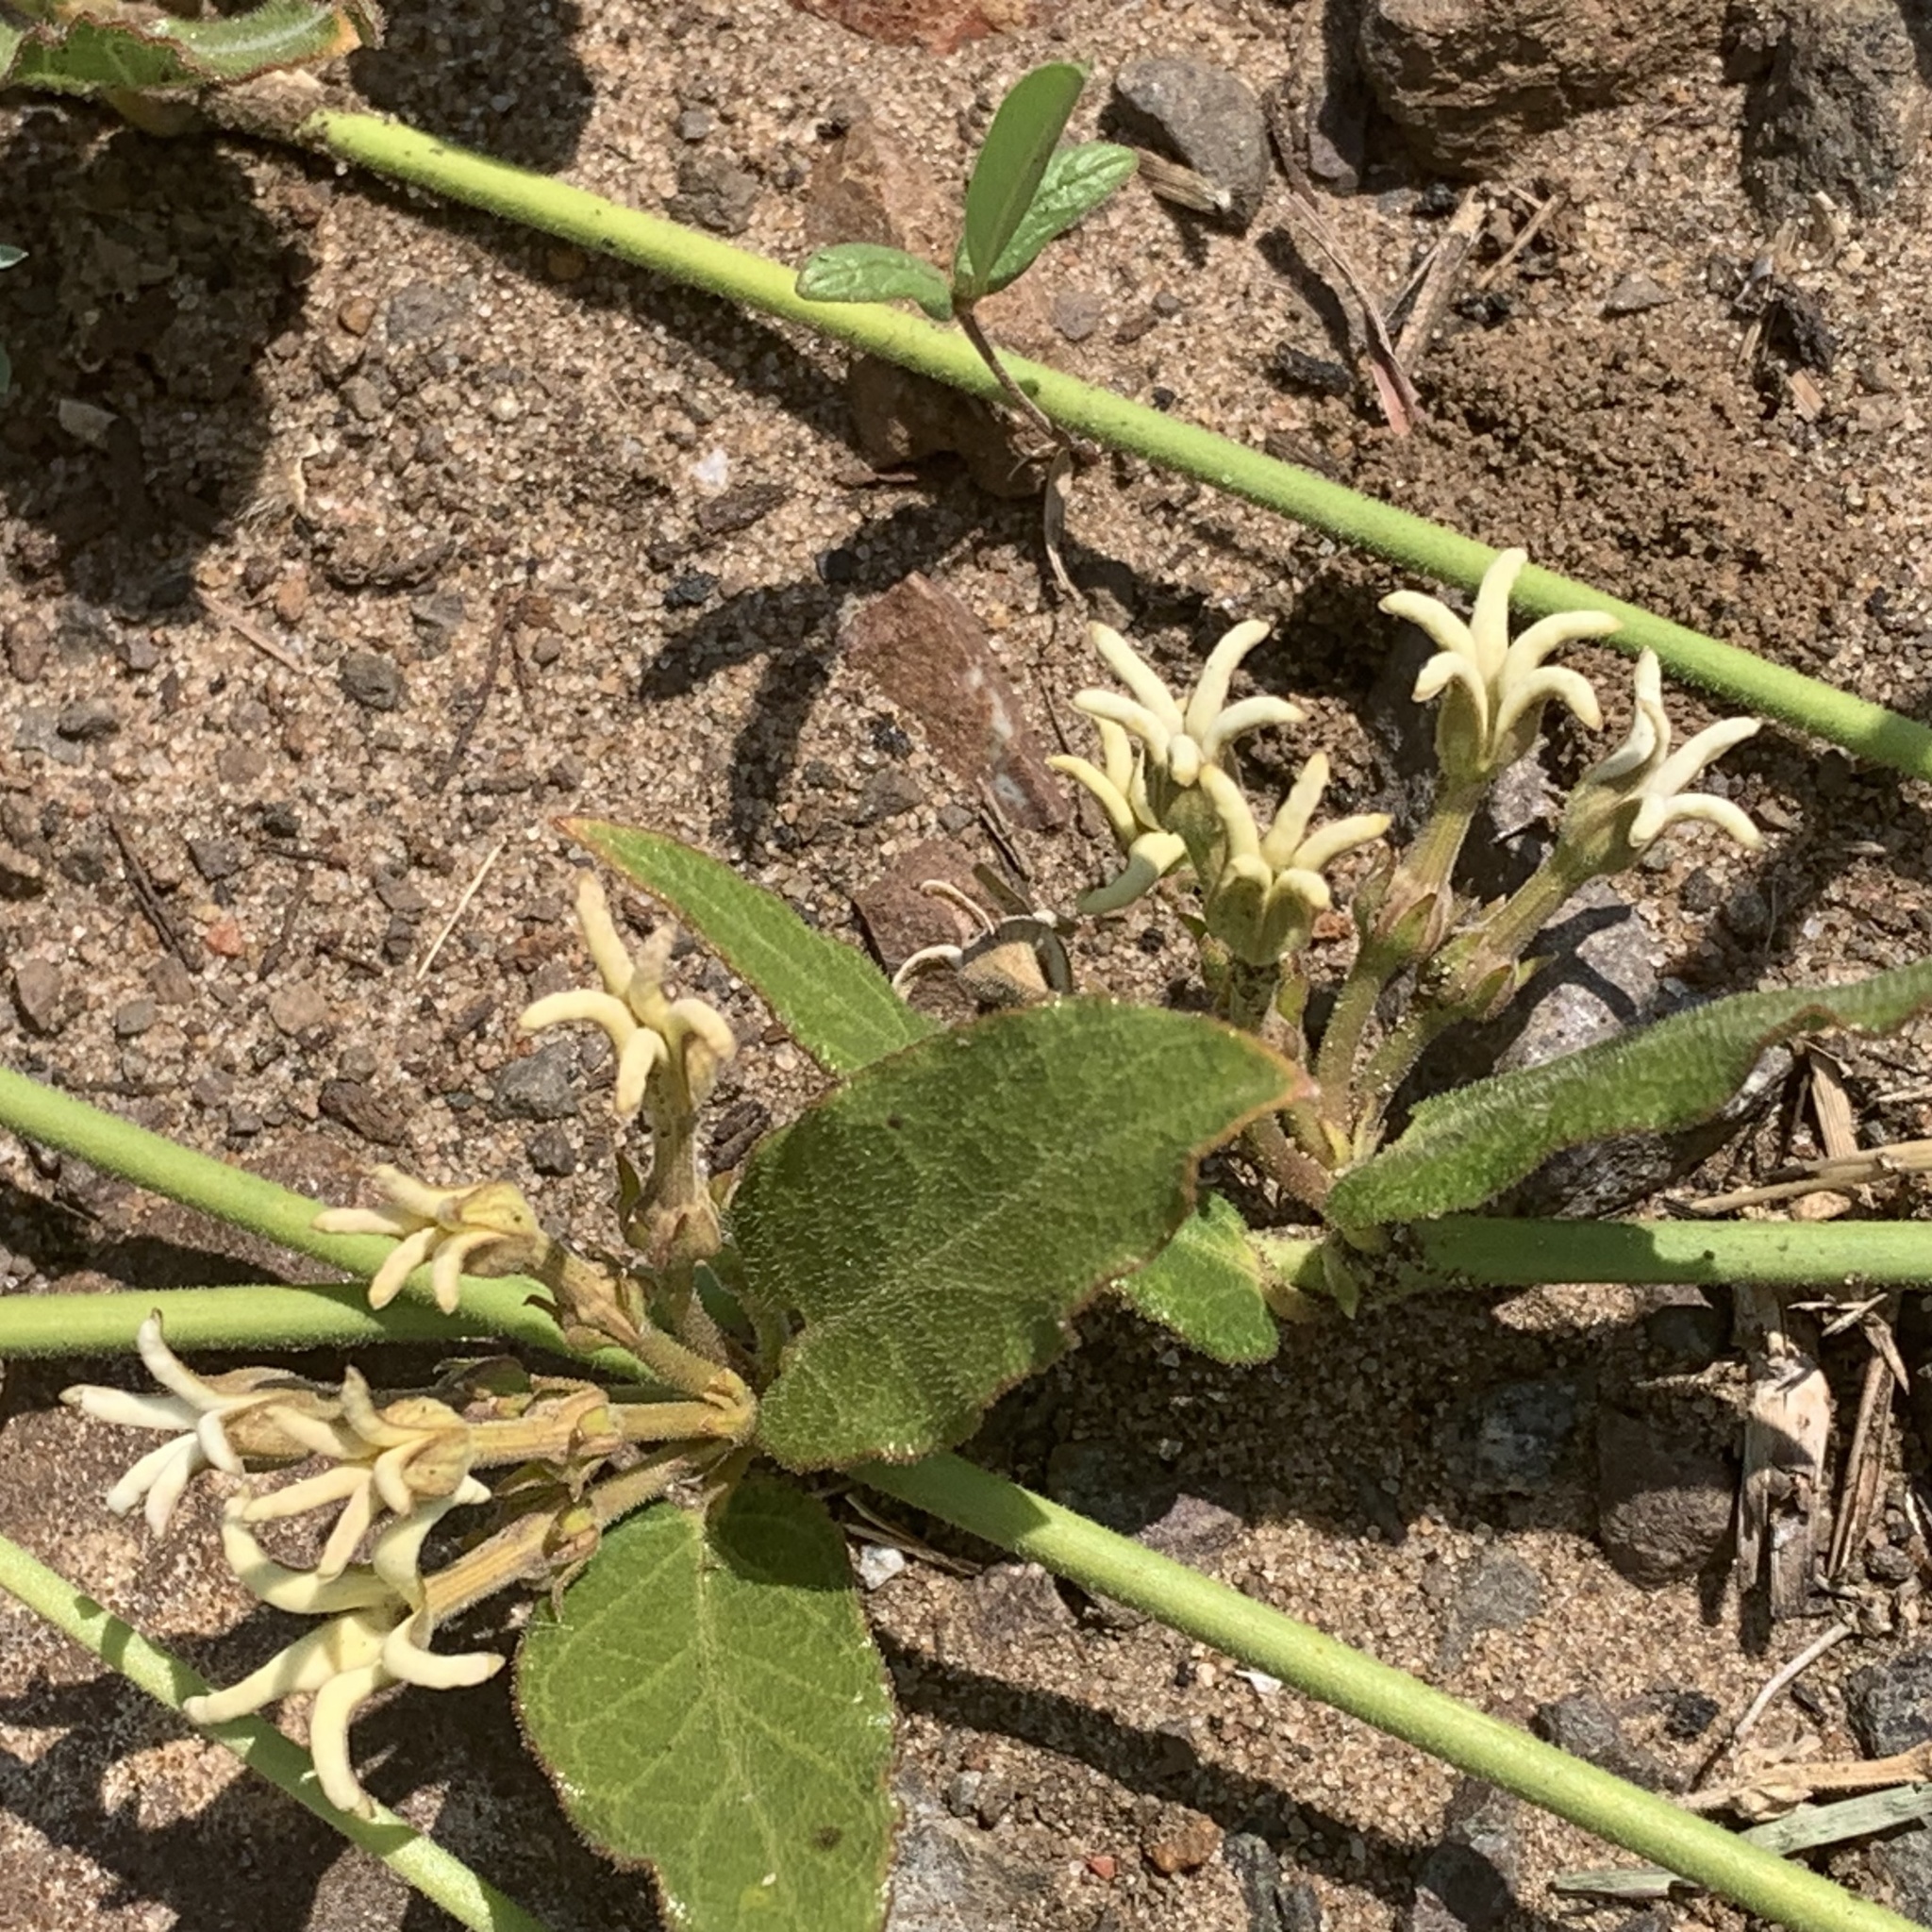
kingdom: Plantae
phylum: Tracheophyta
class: Magnoliopsida
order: Gentianales
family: Apocynaceae
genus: Orthanthera
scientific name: Orthanthera jasminiflora
